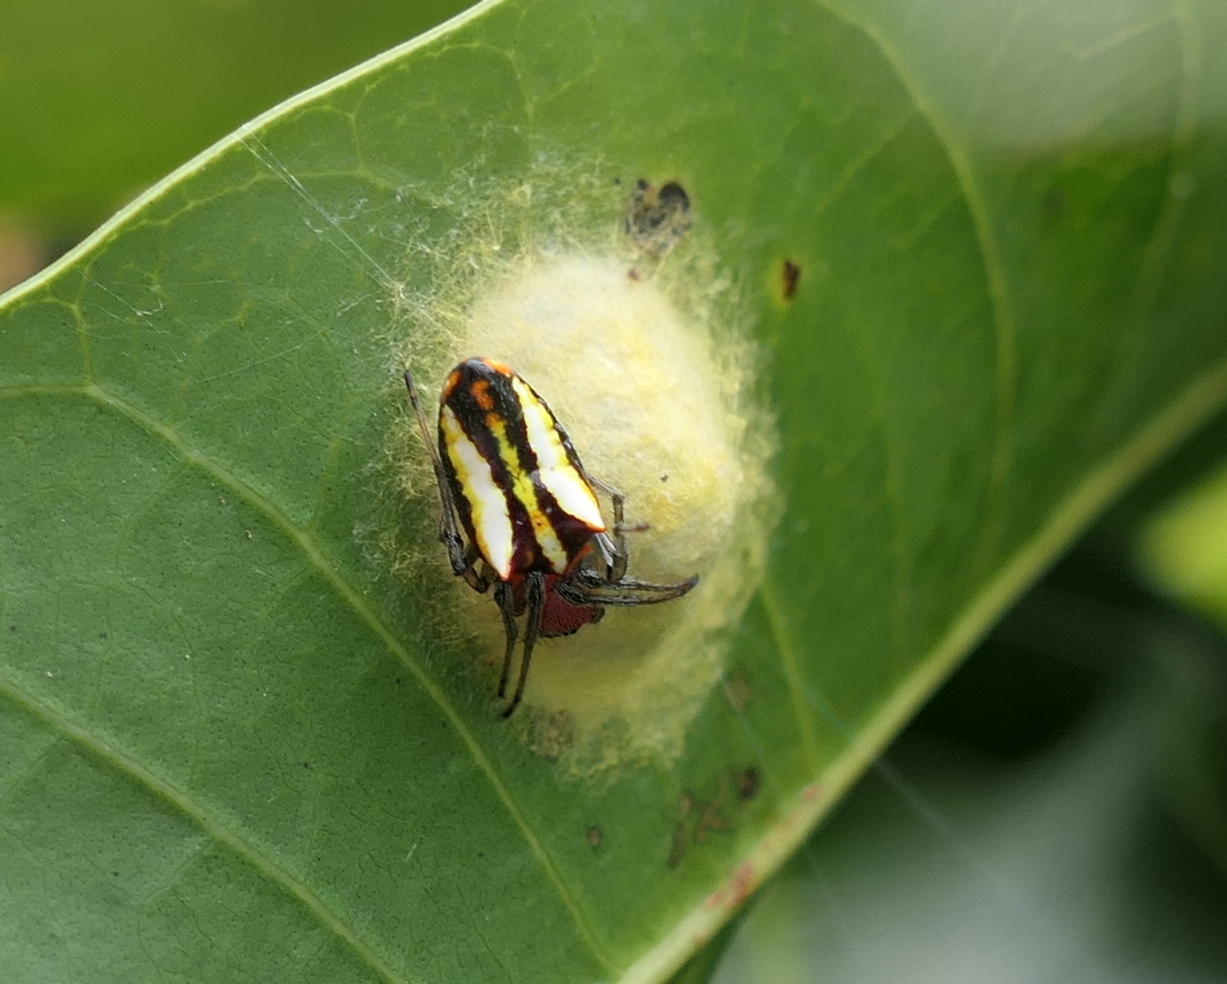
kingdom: Animalia
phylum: Arthropoda
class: Arachnida
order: Araneae
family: Araneidae
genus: Alpaida
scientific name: Alpaida bicornuta
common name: Orb weavers
